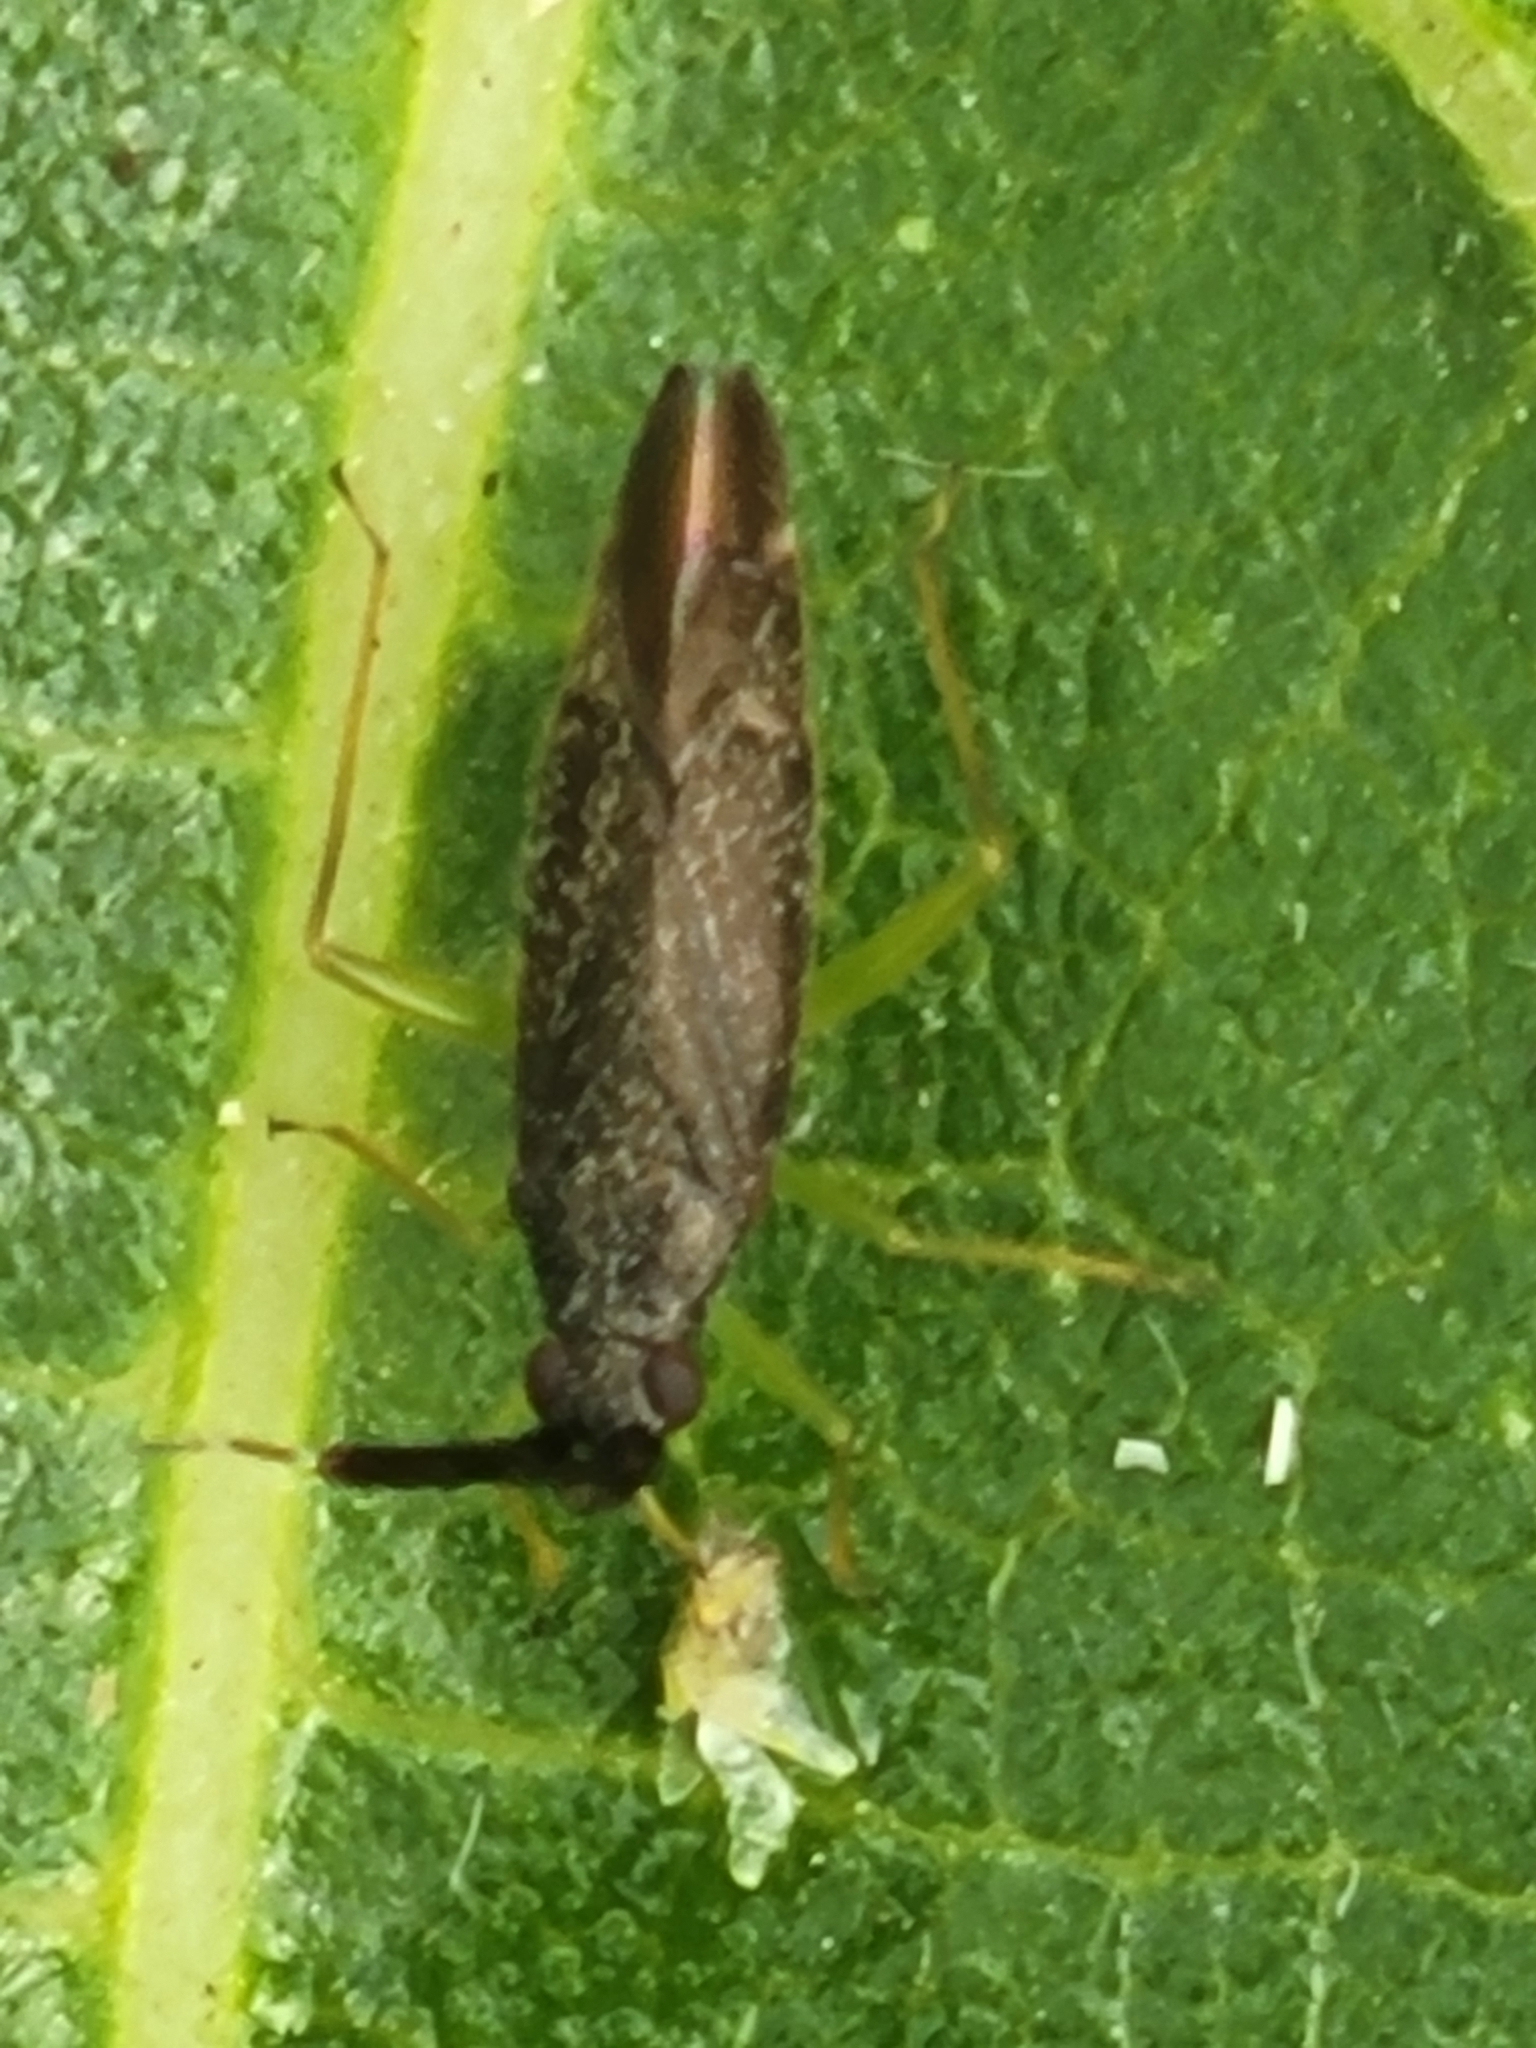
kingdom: Animalia
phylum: Arthropoda
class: Insecta
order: Hemiptera
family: Miridae
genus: Heterotoma
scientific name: Heterotoma planicornis
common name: Plant bug
